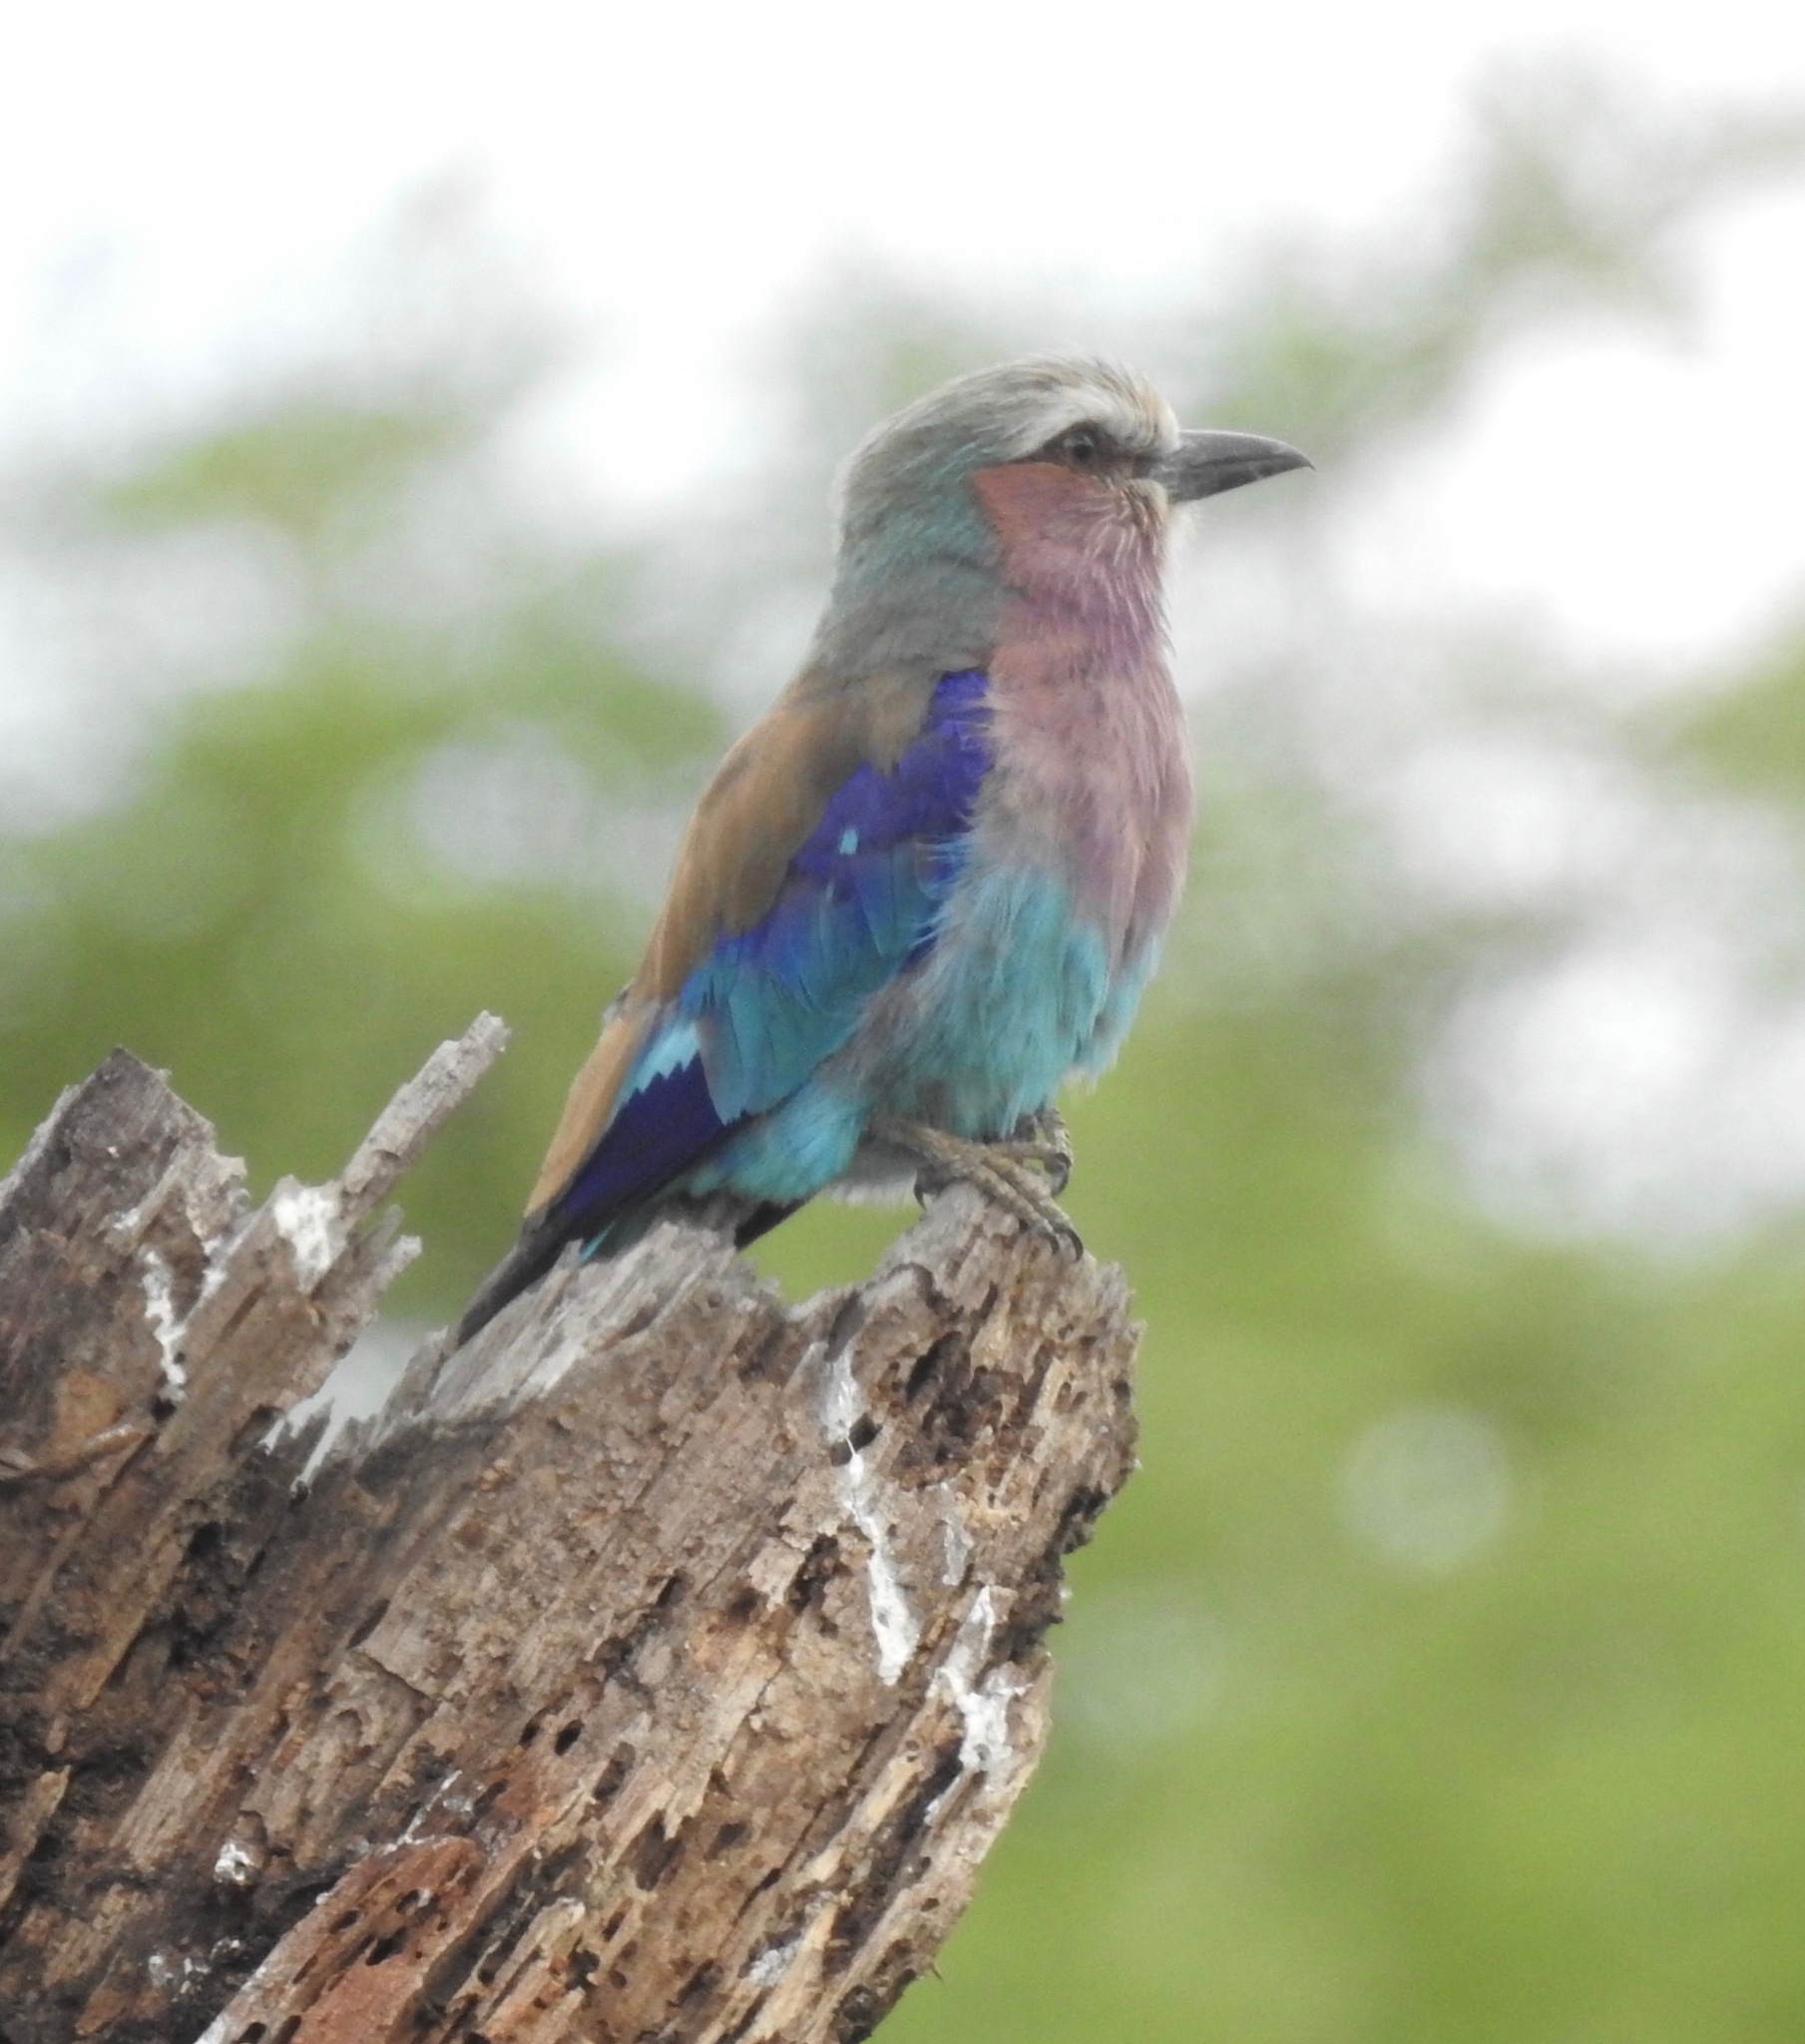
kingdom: Animalia
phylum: Chordata
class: Aves
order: Coraciiformes
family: Coraciidae
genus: Coracias
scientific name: Coracias caudatus
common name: Lilac-breasted roller
